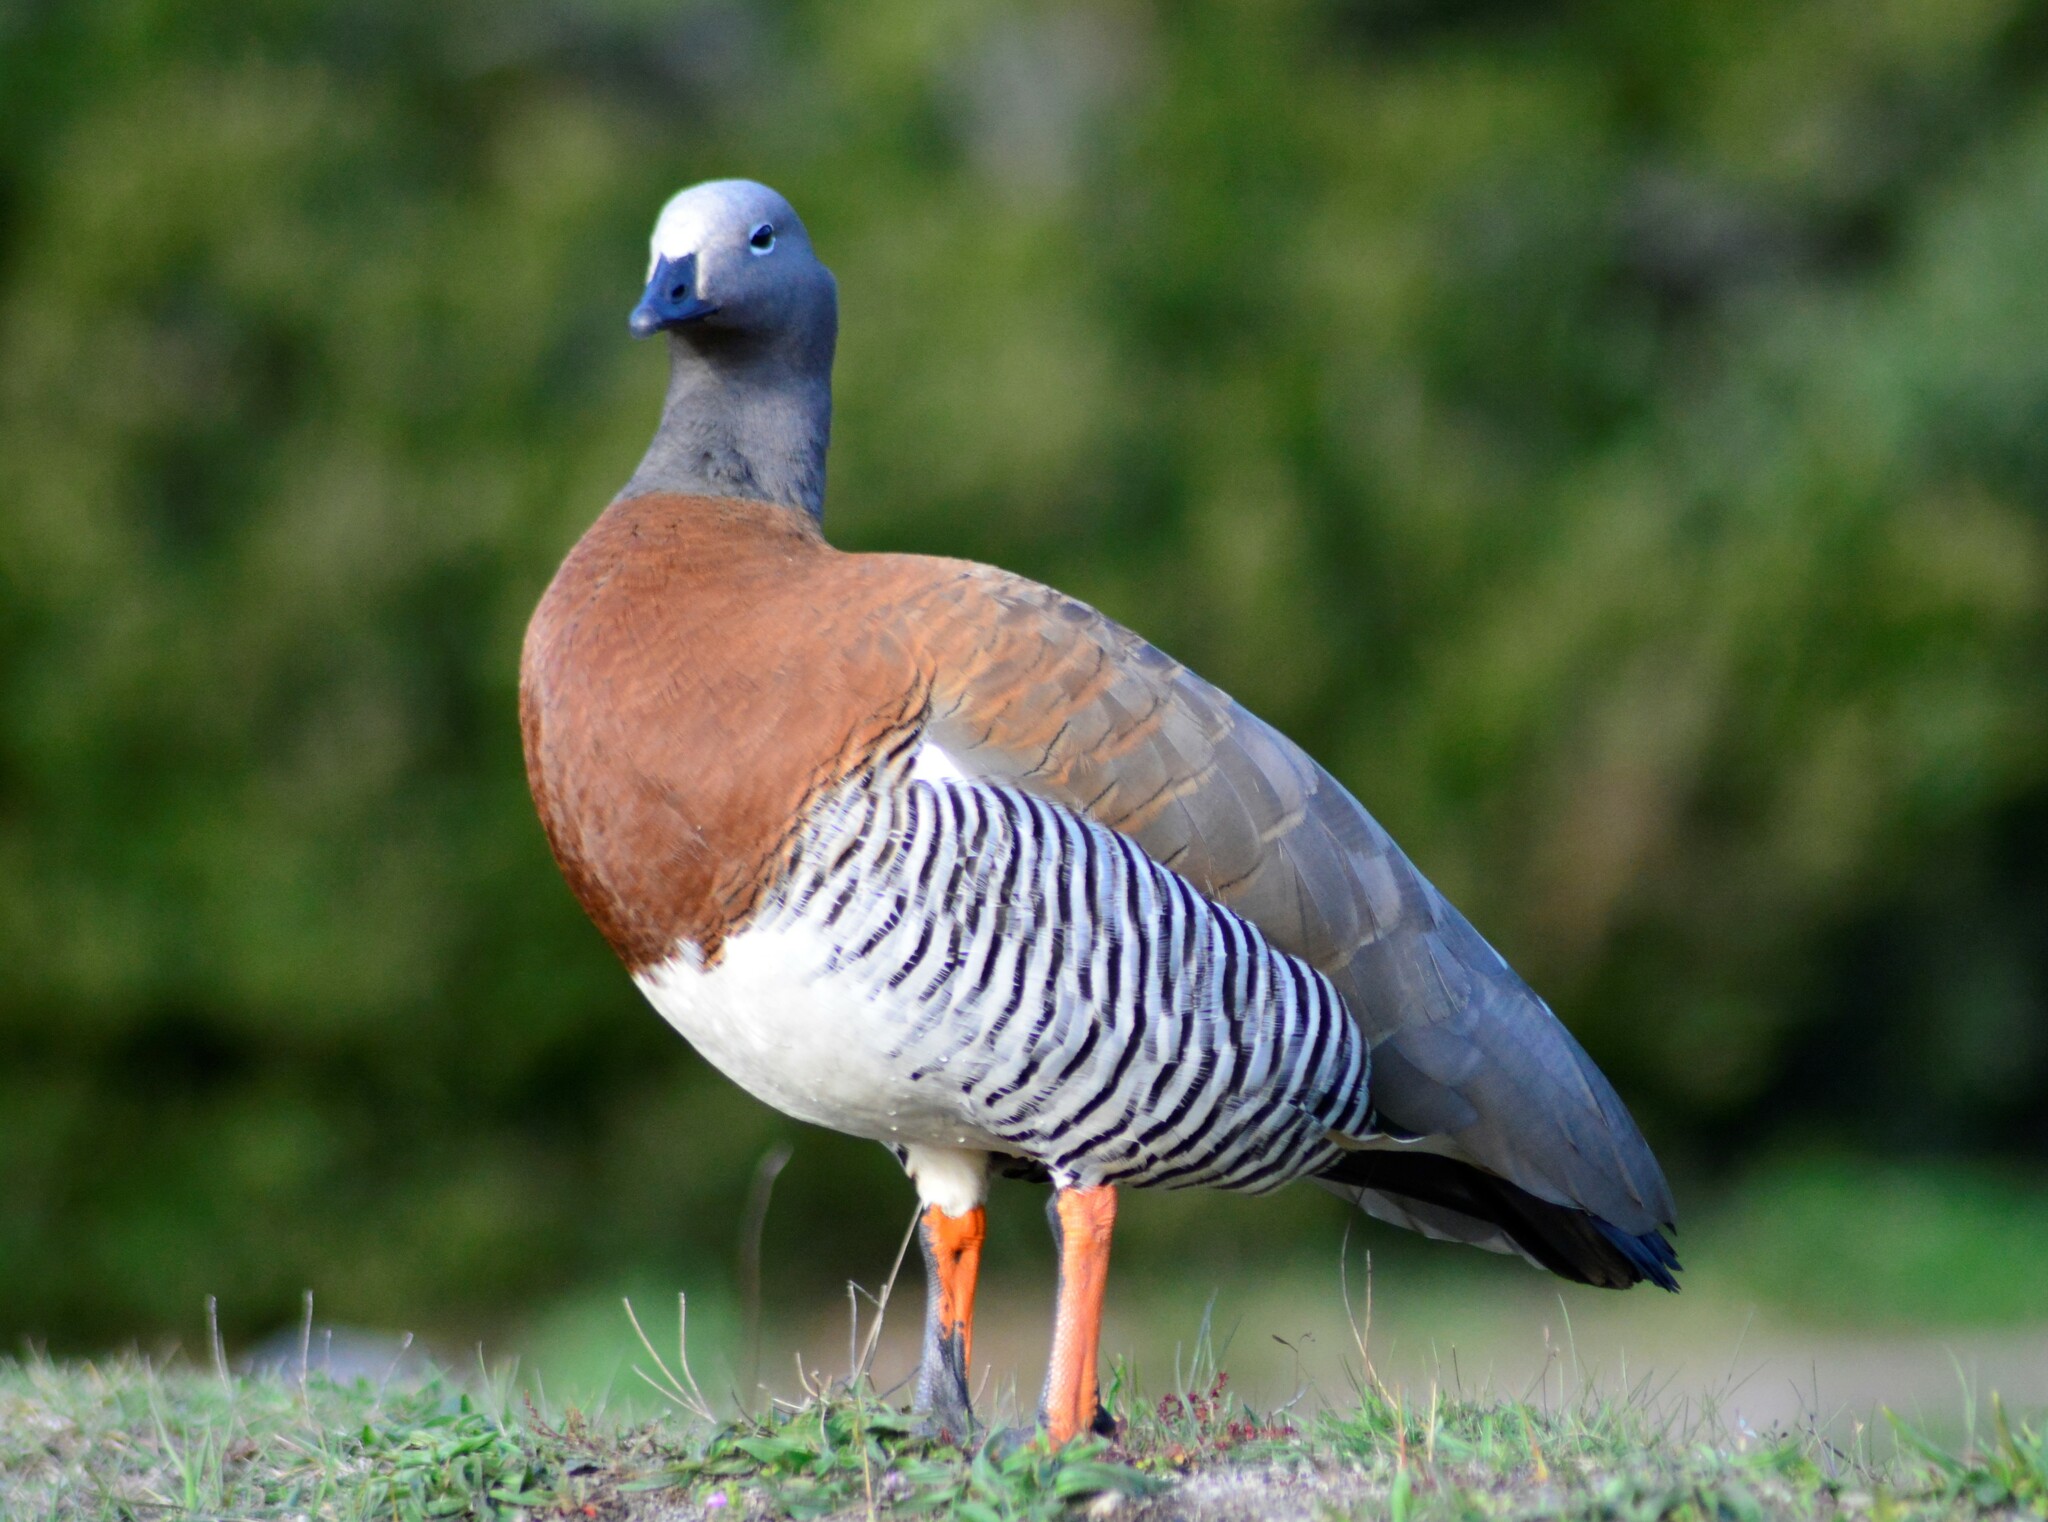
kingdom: Animalia
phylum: Chordata
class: Aves
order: Anseriformes
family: Anatidae
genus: Chloephaga
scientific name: Chloephaga poliocephala
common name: Ashy-headed goose
